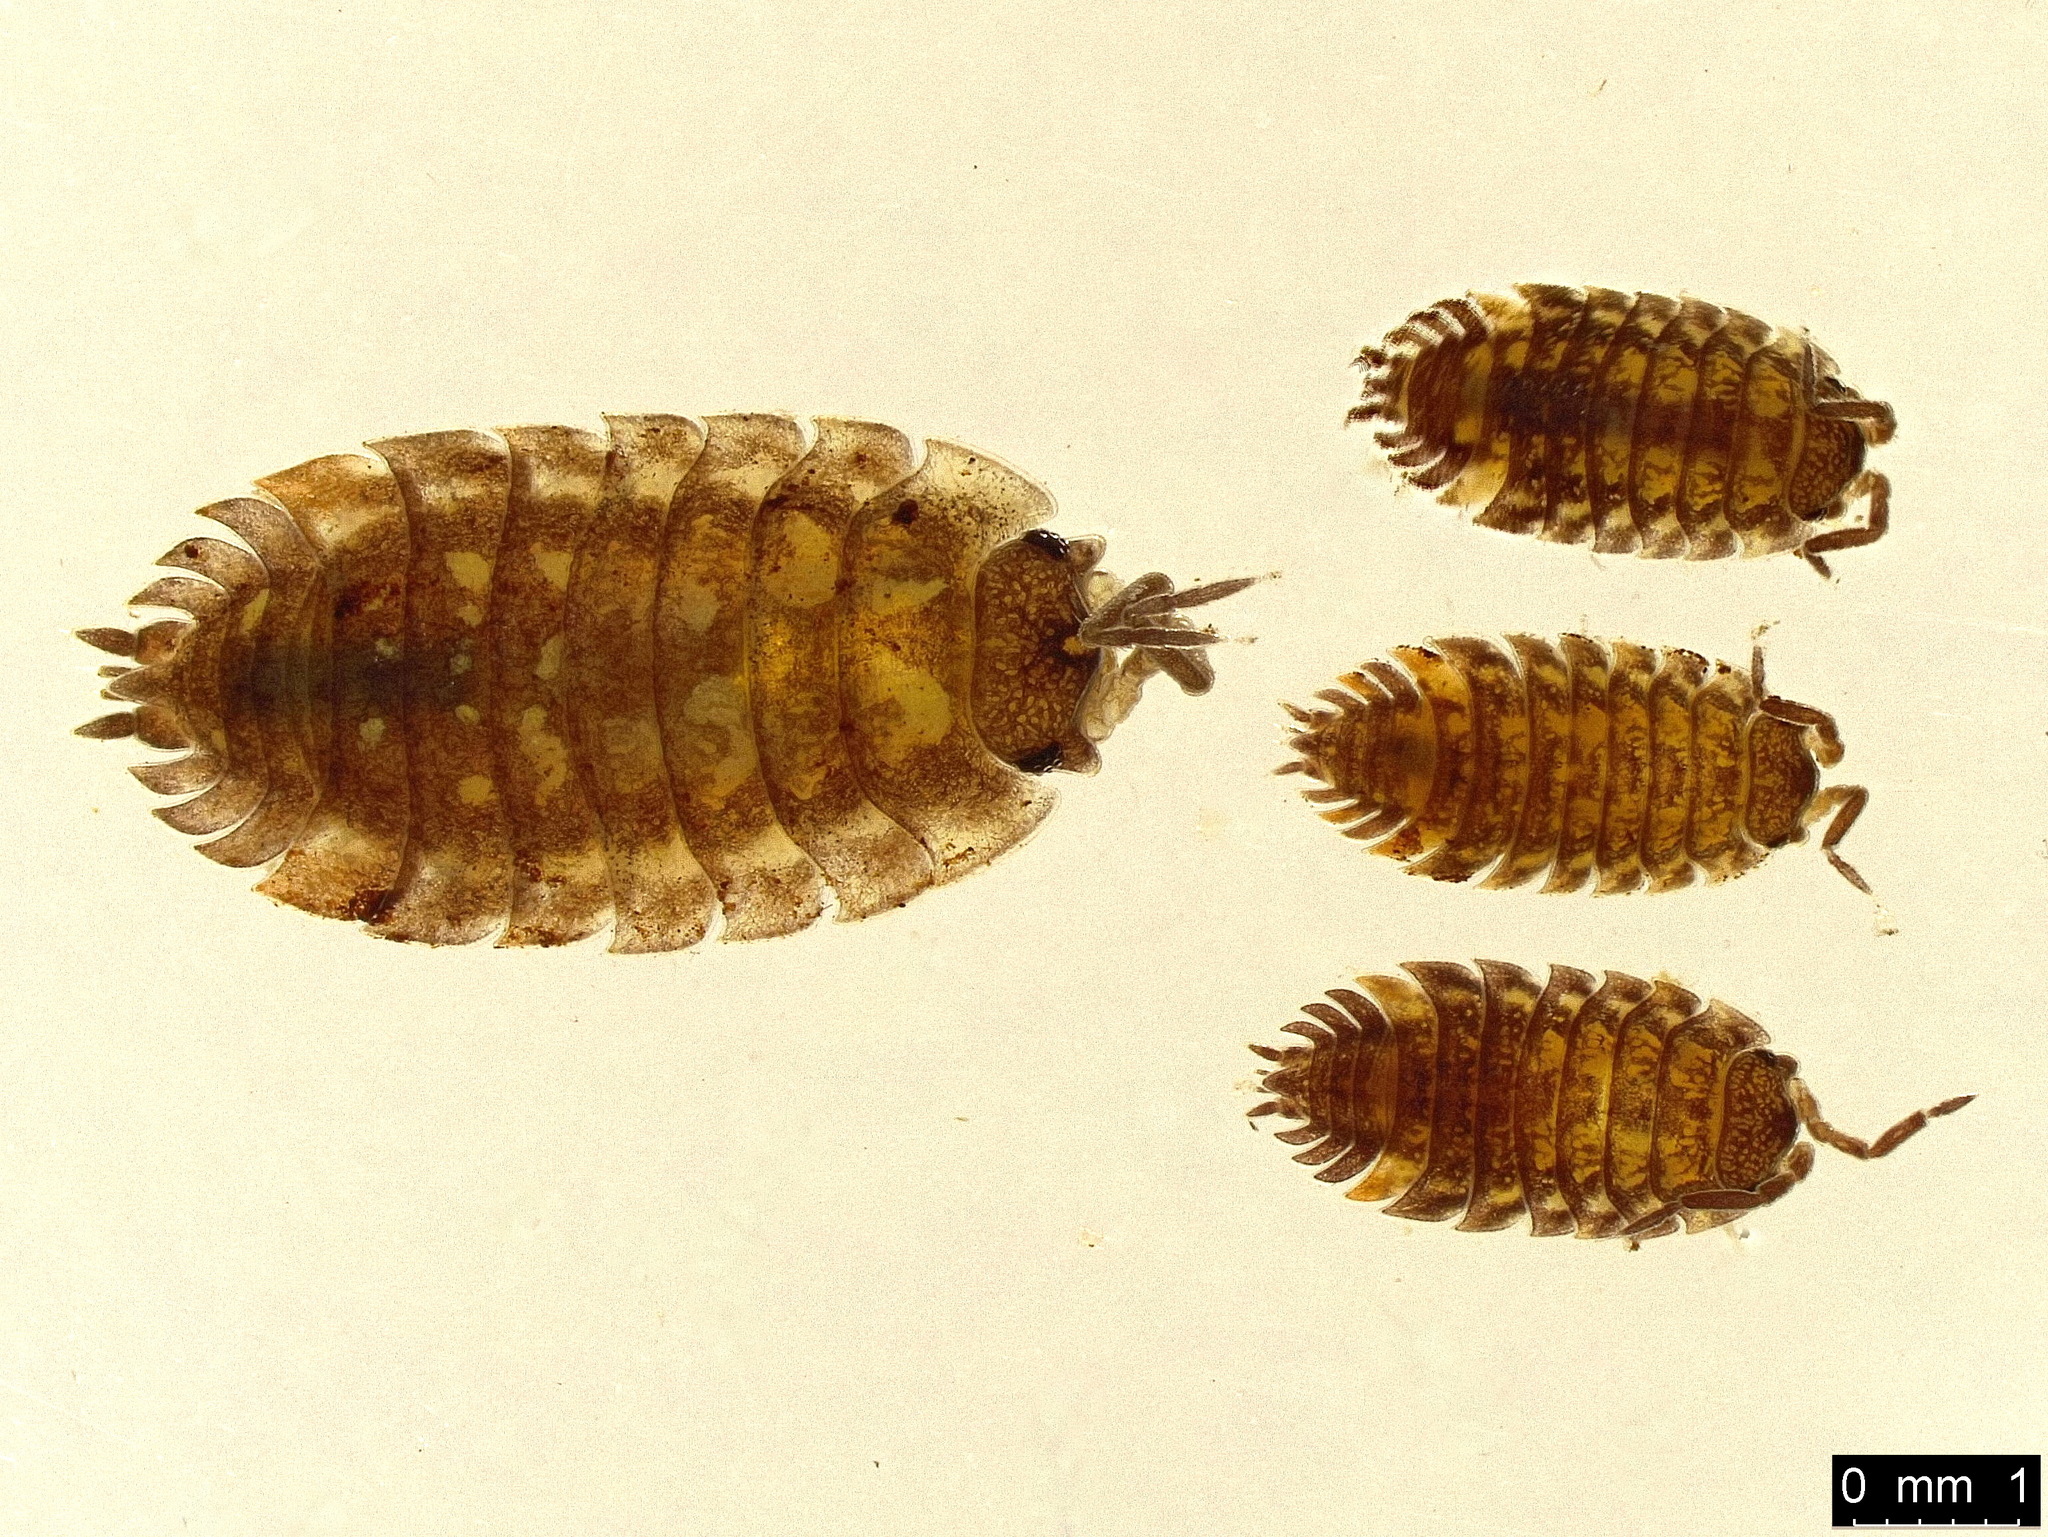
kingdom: Animalia
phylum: Arthropoda
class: Malacostraca
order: Isopoda
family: Oniscidae
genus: Oniscus
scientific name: Oniscus asellus
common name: Common shiny woodlouse
